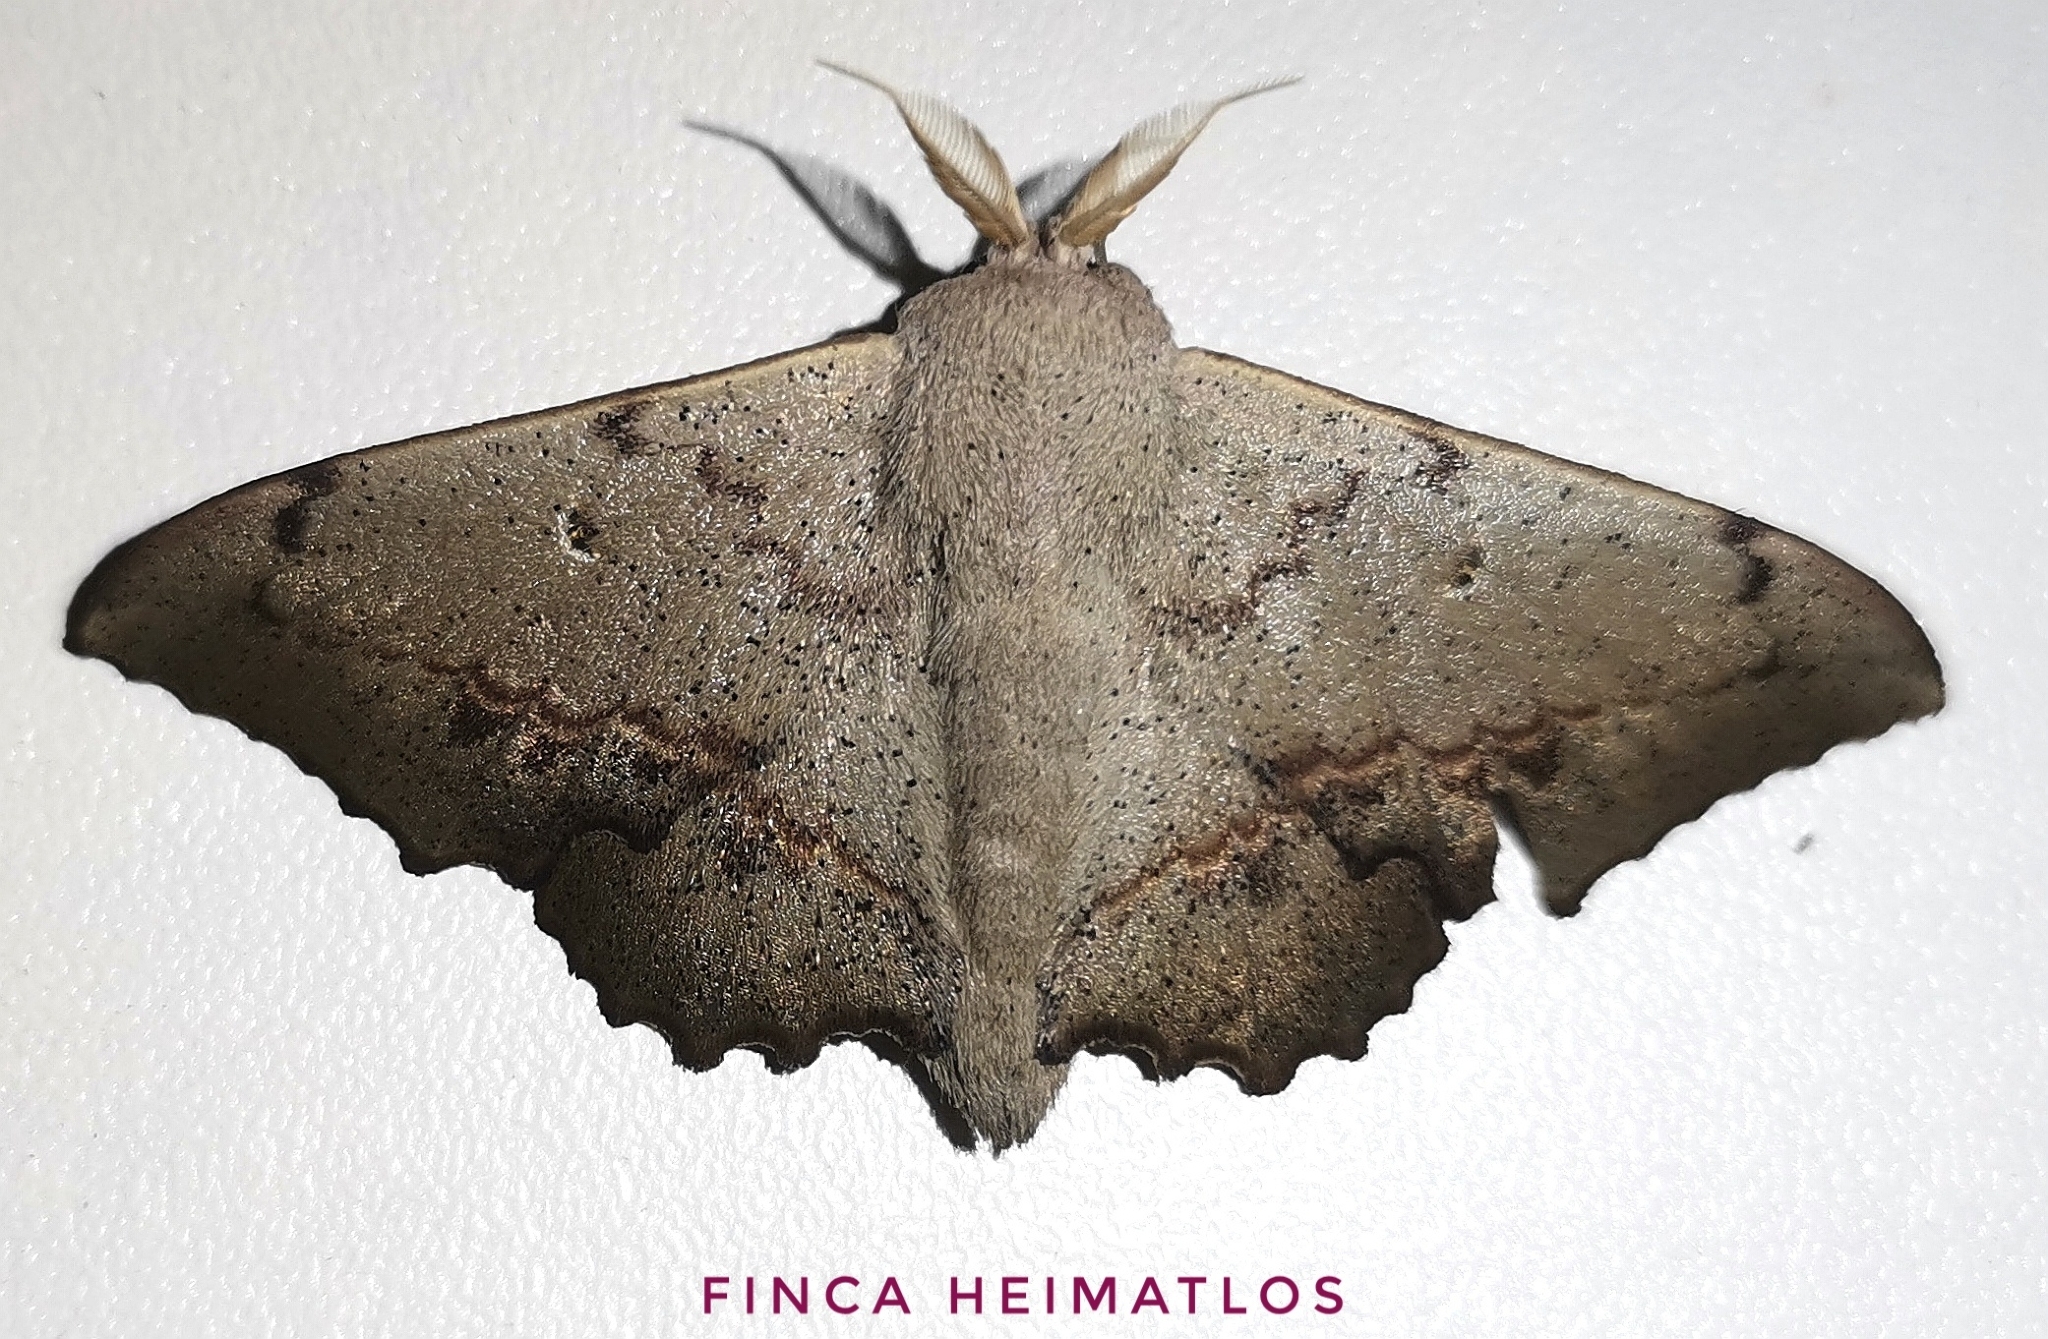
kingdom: Animalia
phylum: Arthropoda
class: Insecta
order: Lepidoptera
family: Mimallonidae
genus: Mimallo
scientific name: Mimallo brosica
